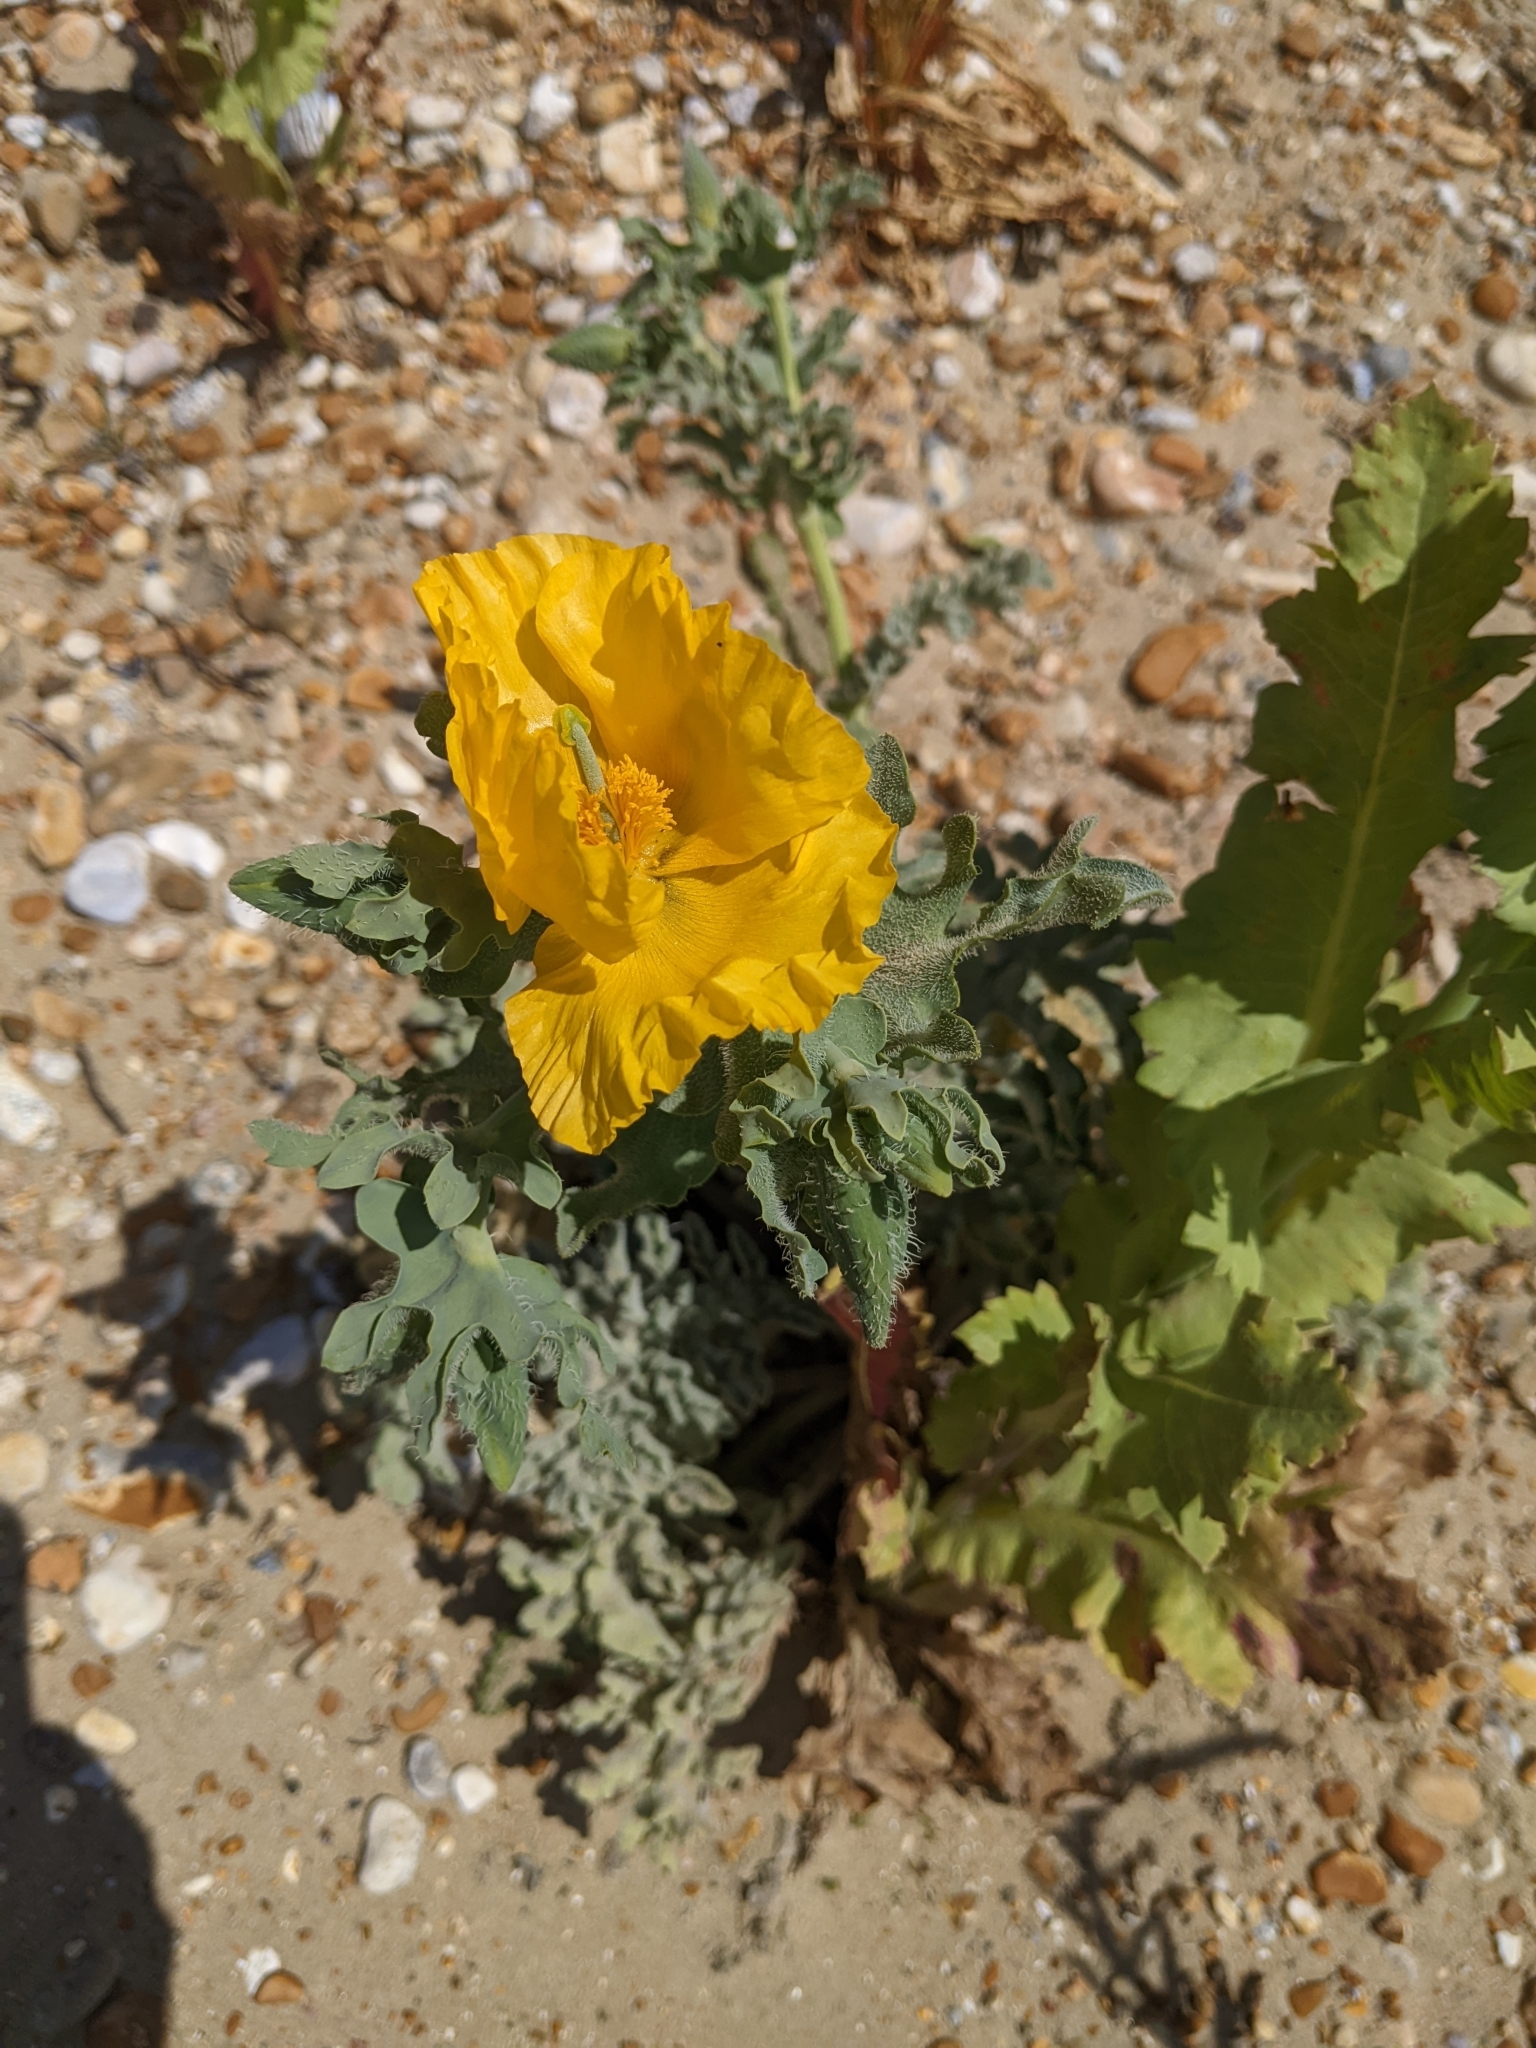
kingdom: Plantae
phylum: Tracheophyta
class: Magnoliopsida
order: Ranunculales
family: Papaveraceae
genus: Glaucium
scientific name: Glaucium flavum
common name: Yellow horned-poppy
